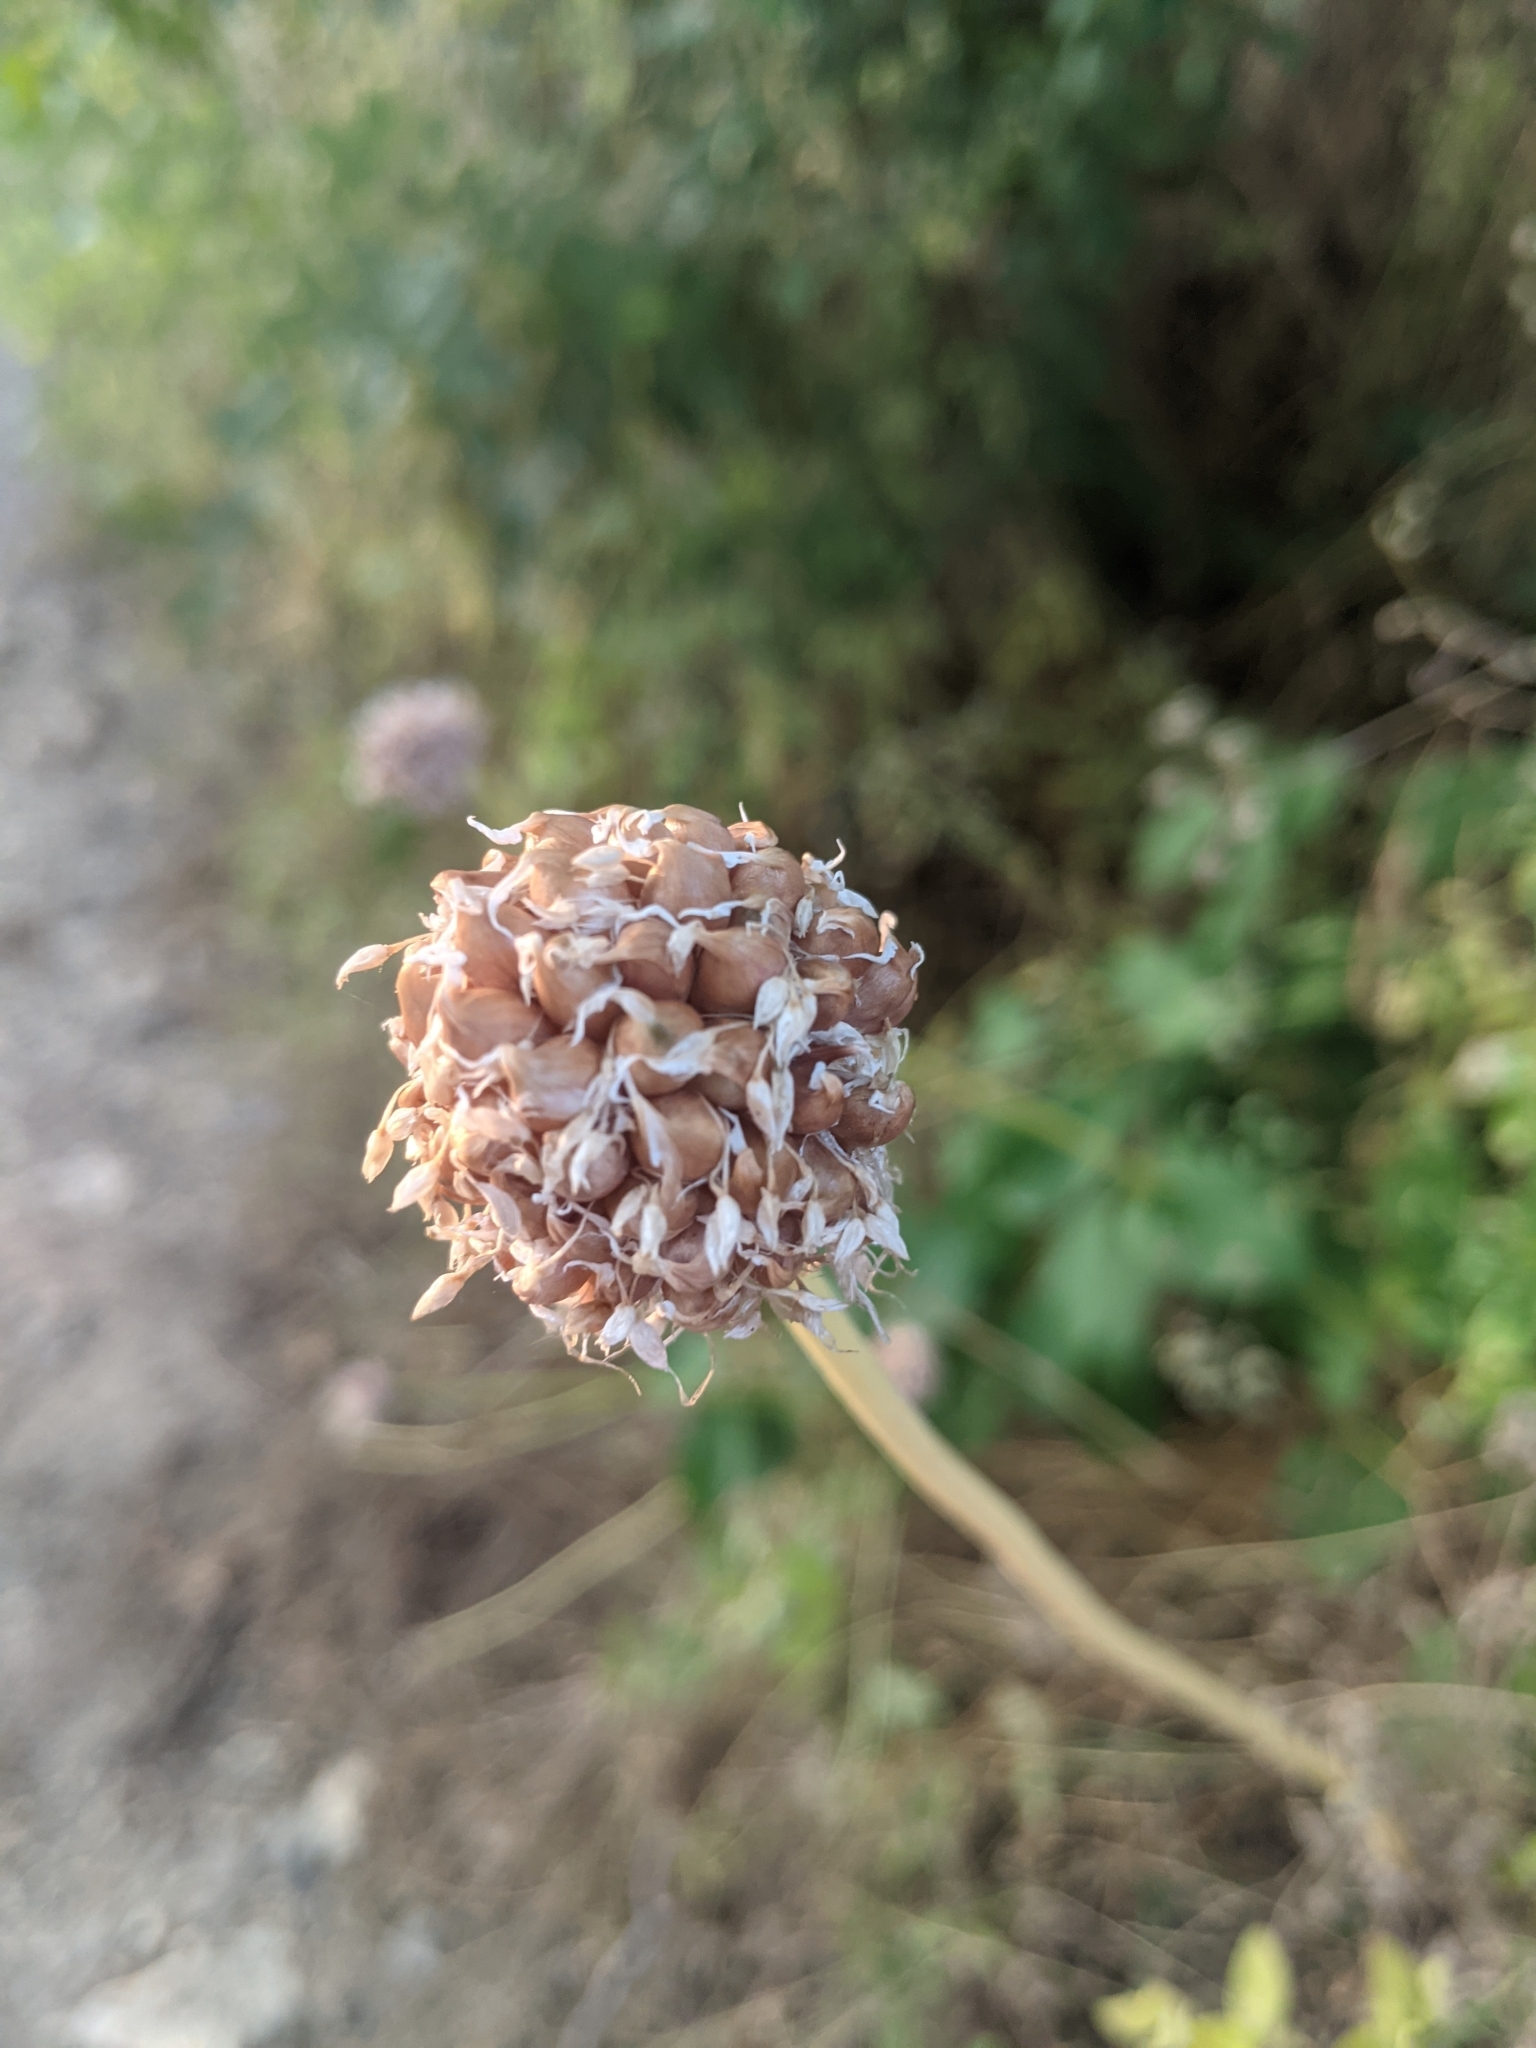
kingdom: Plantae
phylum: Tracheophyta
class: Liliopsida
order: Asparagales
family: Amaryllidaceae
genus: Allium
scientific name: Allium sativum
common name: Garlic
